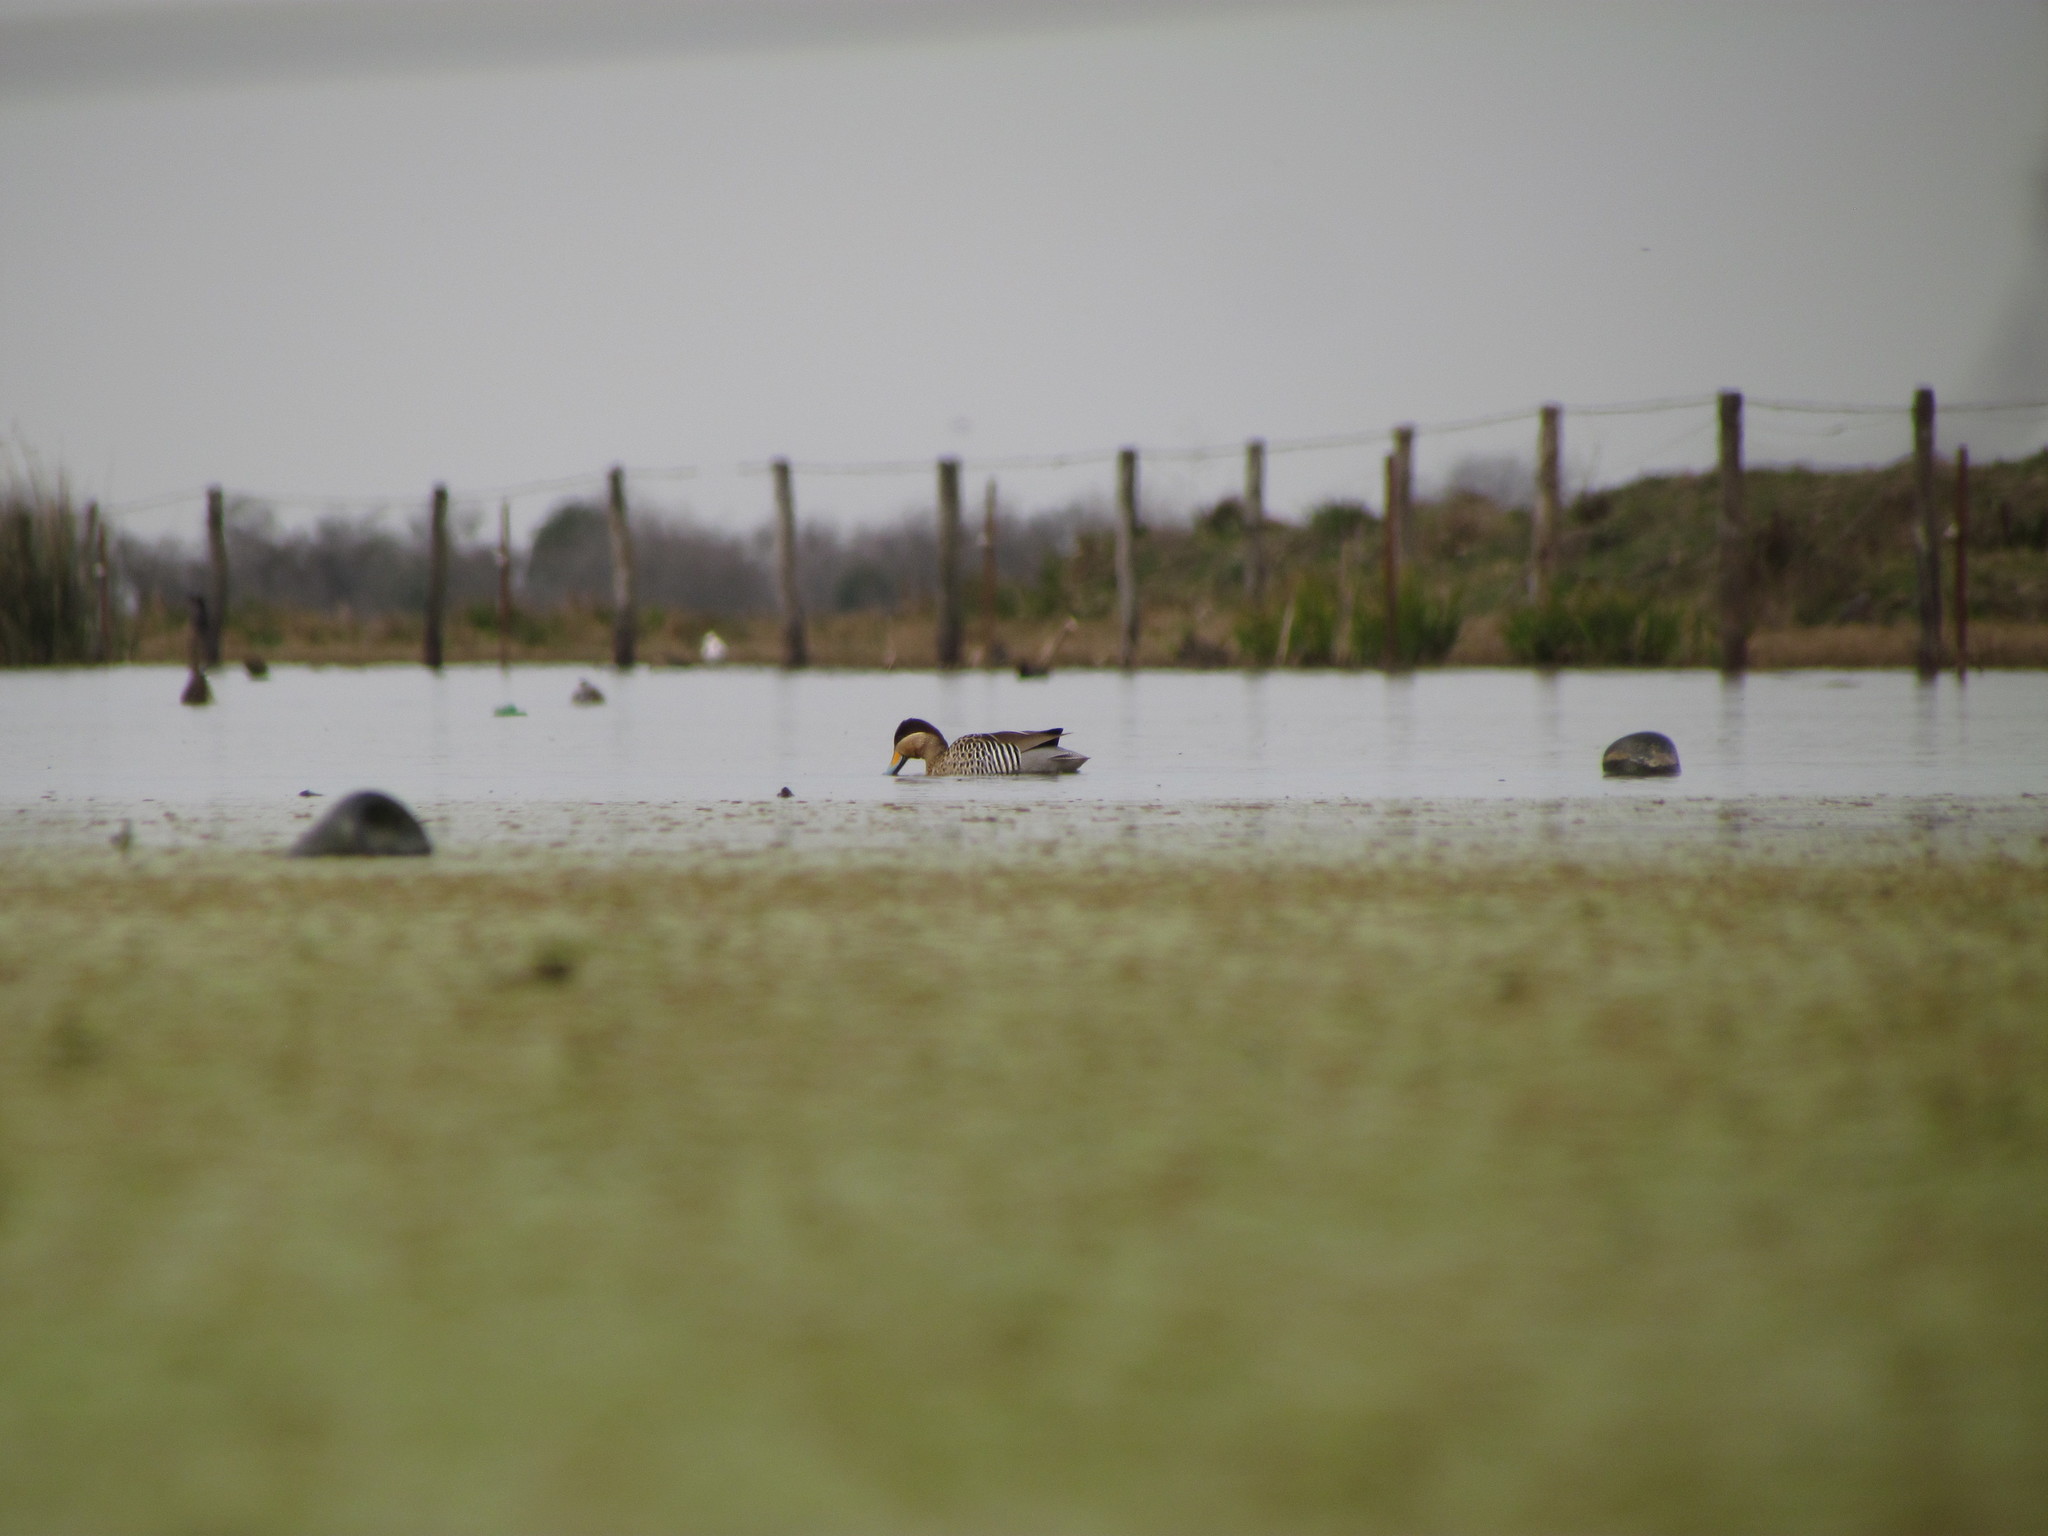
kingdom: Animalia
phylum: Chordata
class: Aves
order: Anseriformes
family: Anatidae
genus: Spatula
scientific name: Spatula versicolor
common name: Silver teal
